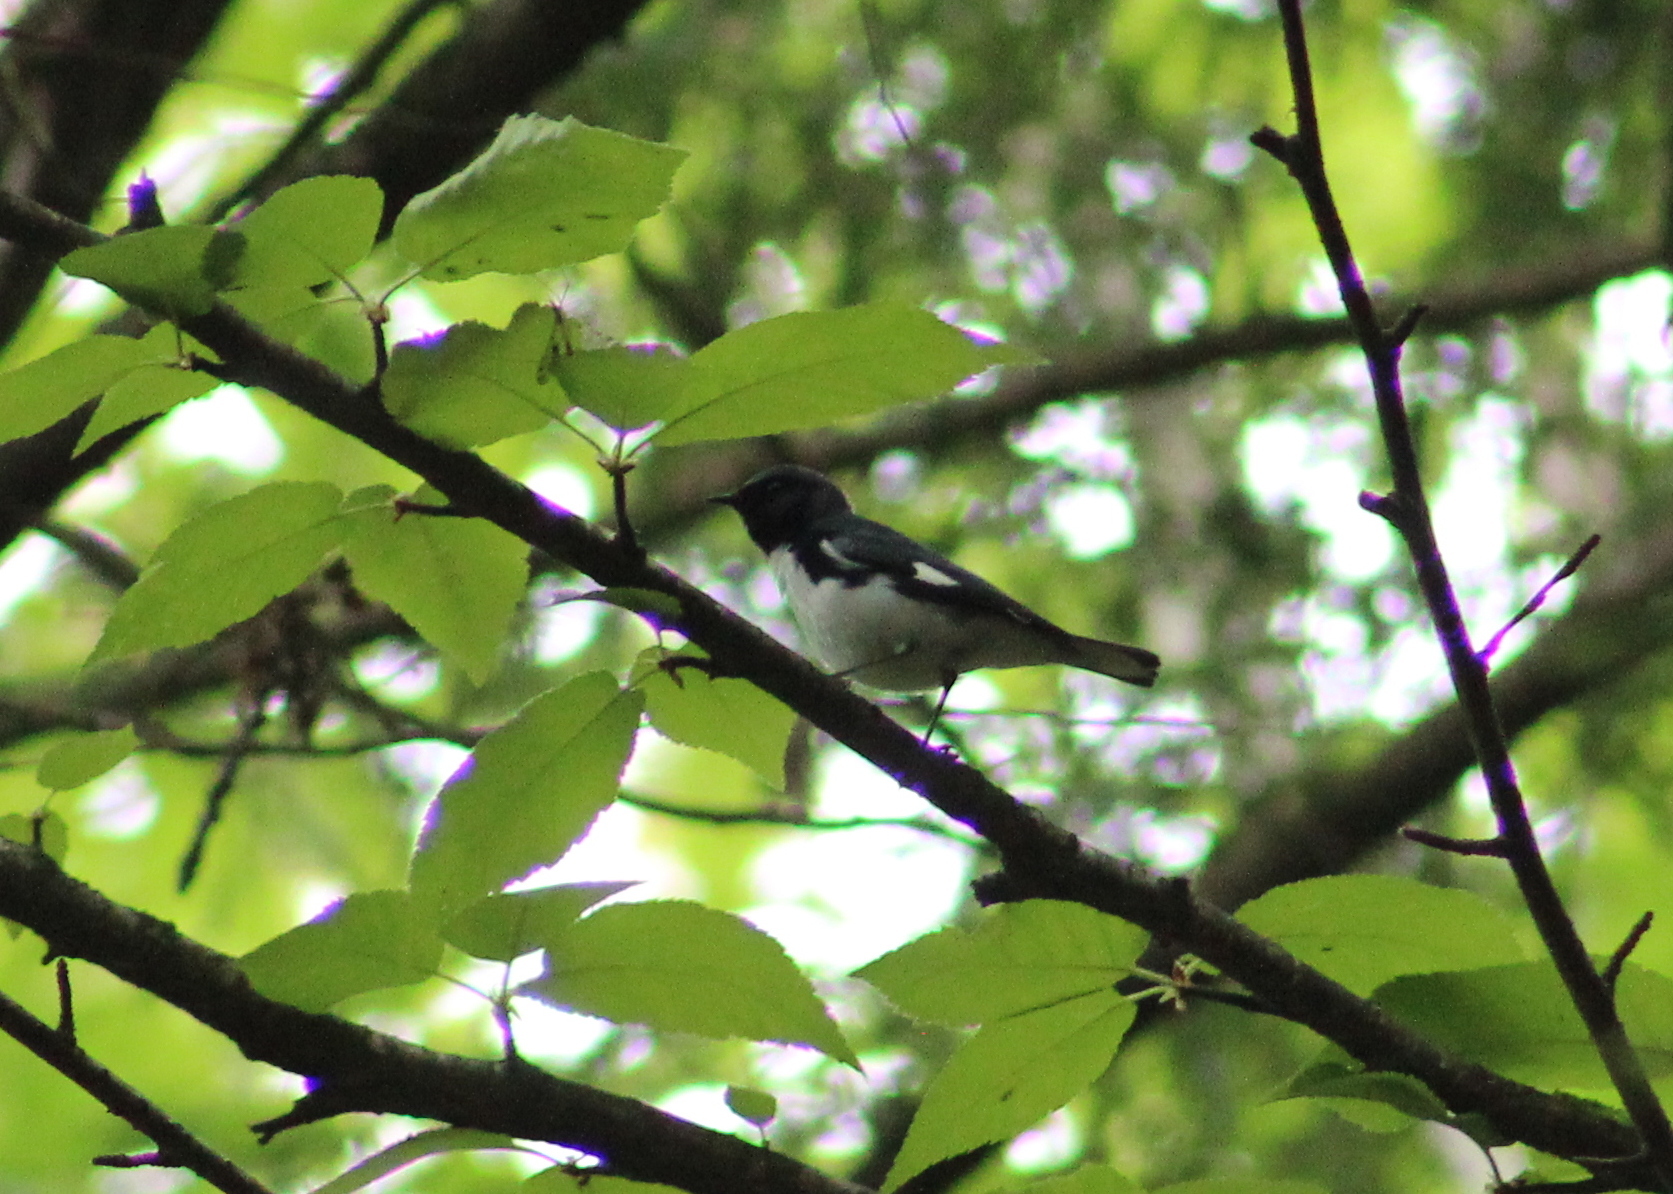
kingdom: Animalia
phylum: Chordata
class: Aves
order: Passeriformes
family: Parulidae
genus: Setophaga
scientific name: Setophaga caerulescens
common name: Black-throated blue warbler
